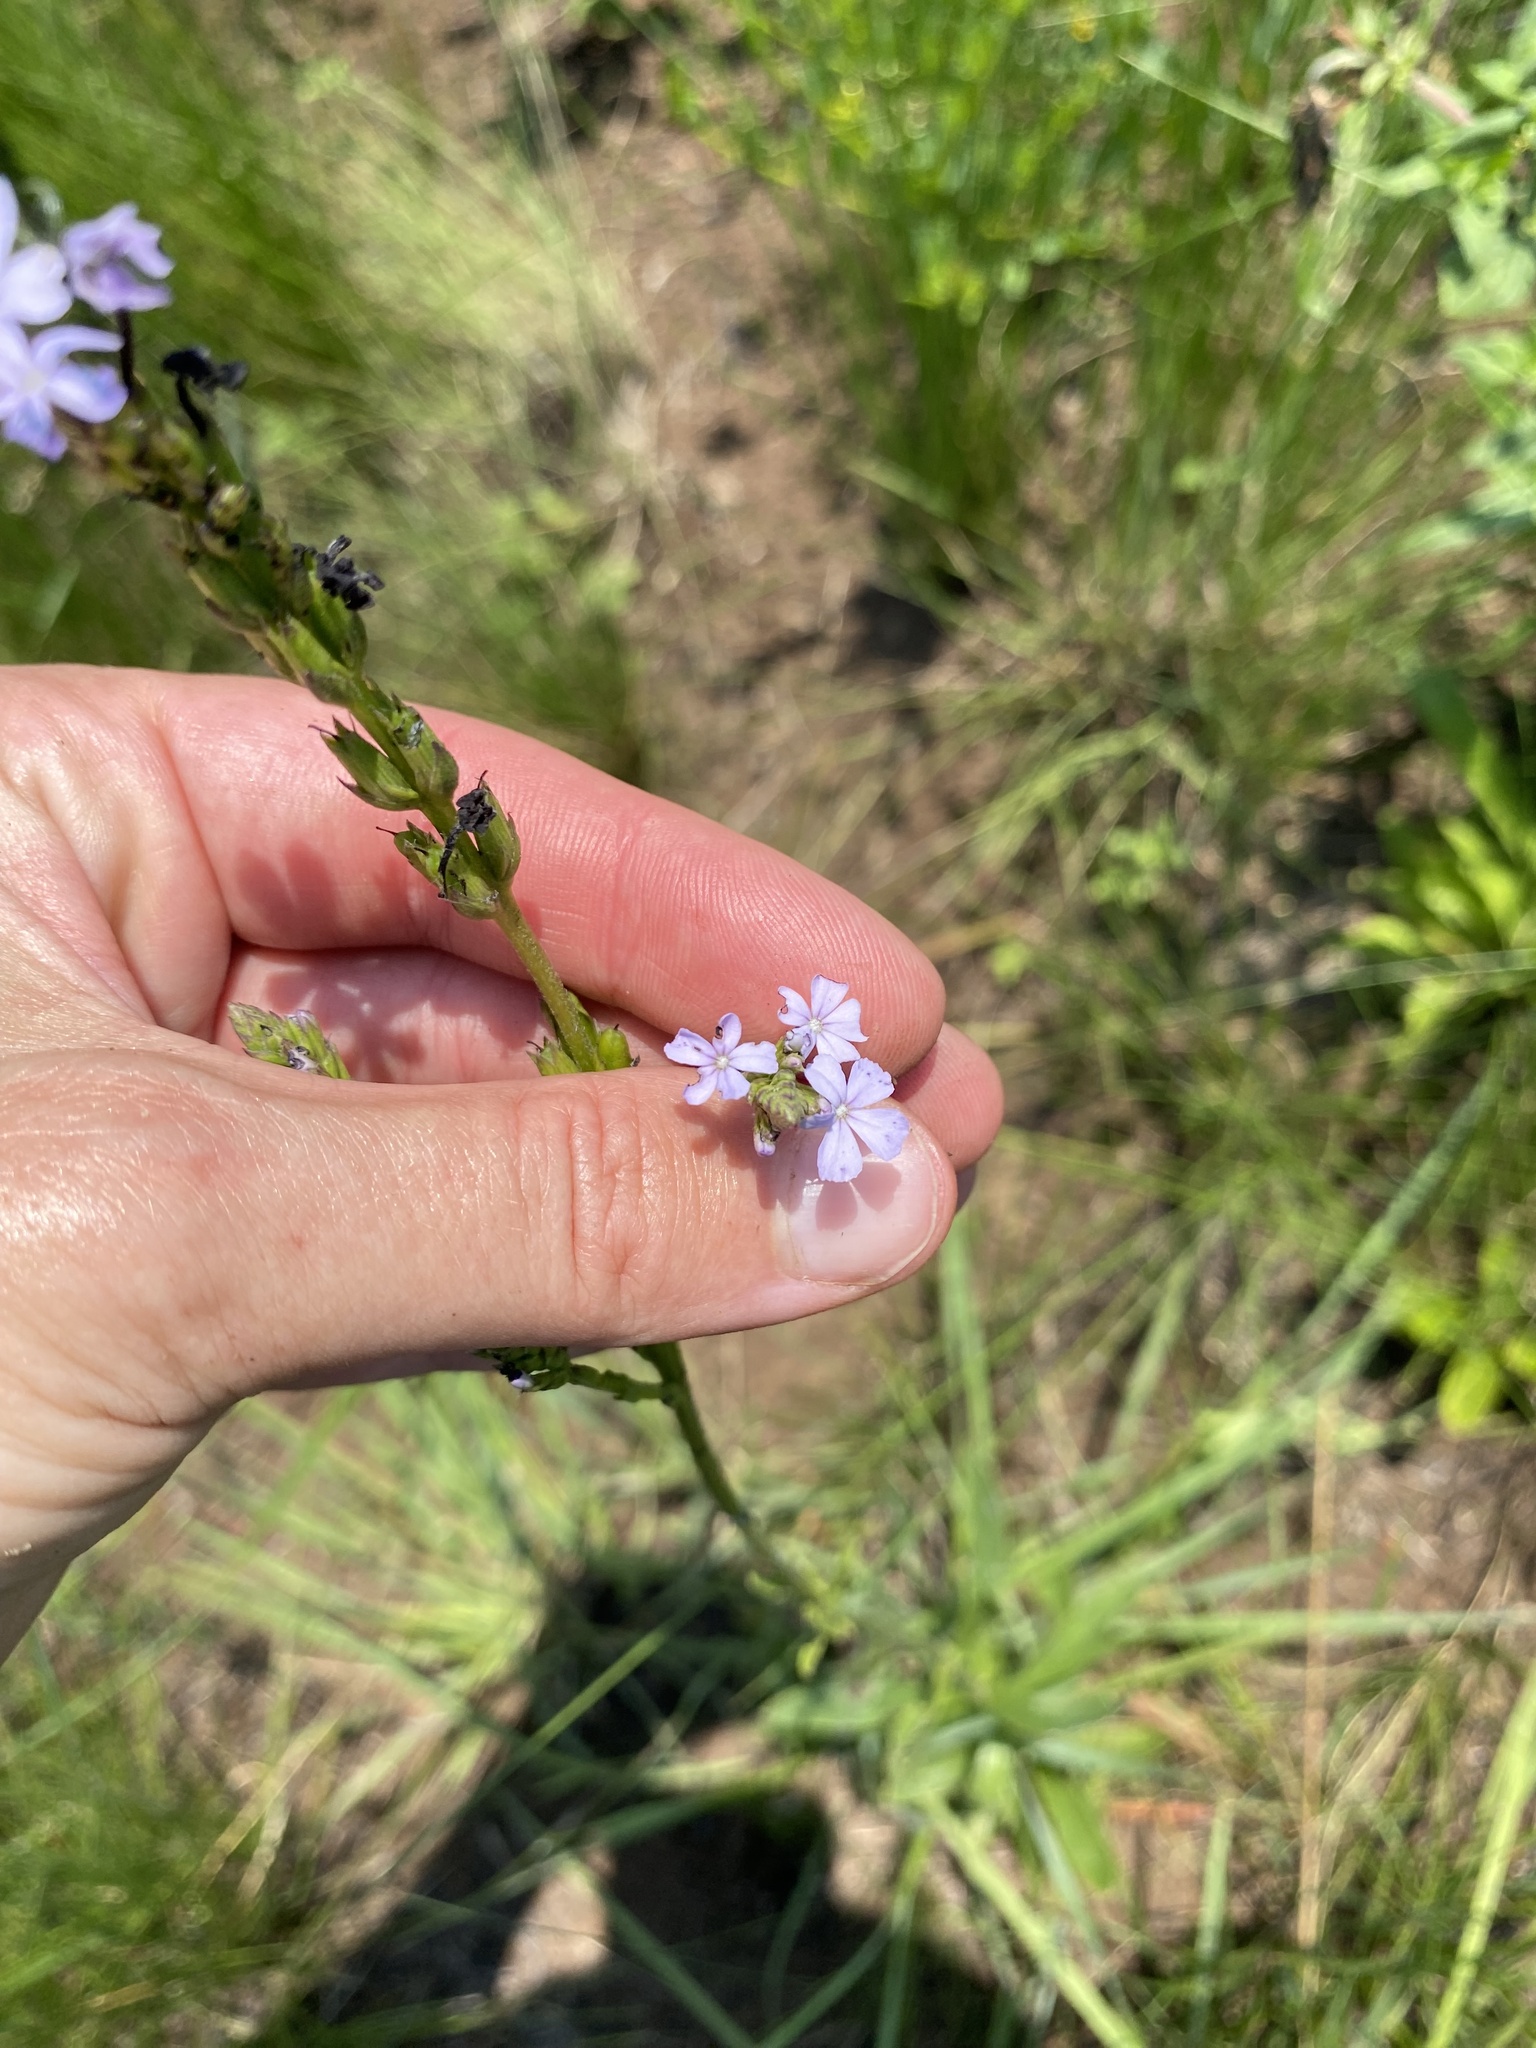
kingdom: Plantae
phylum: Tracheophyta
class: Magnoliopsida
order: Lamiales
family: Orobanchaceae
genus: Buchnera
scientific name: Buchnera dura
